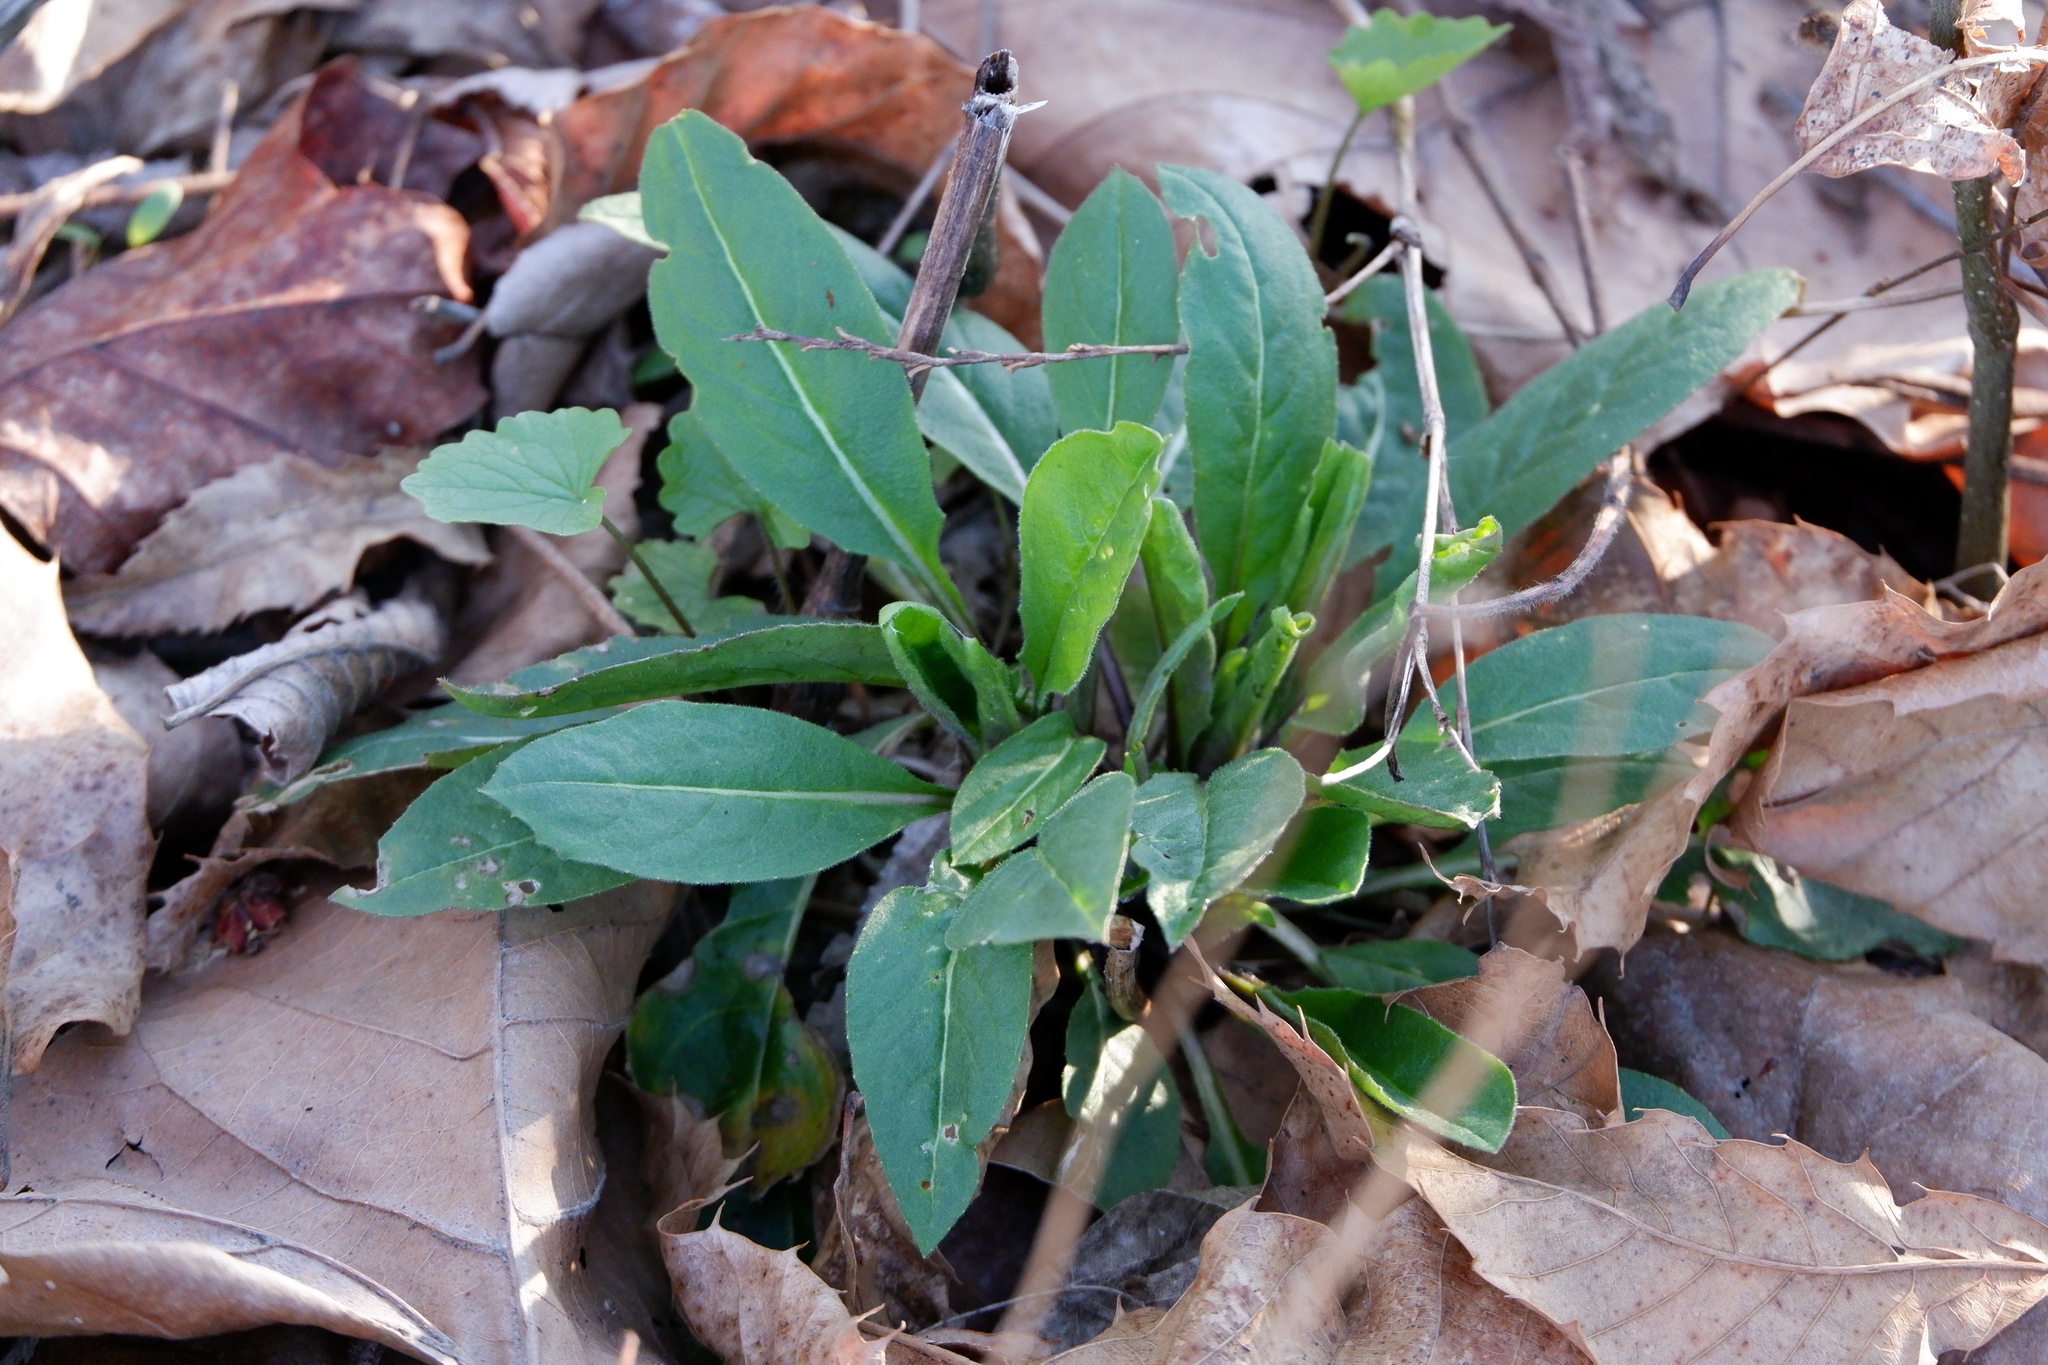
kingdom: Plantae
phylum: Tracheophyta
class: Magnoliopsida
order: Brassicales
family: Brassicaceae
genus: Hesperis
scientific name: Hesperis matronalis
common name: Dame's-violet
